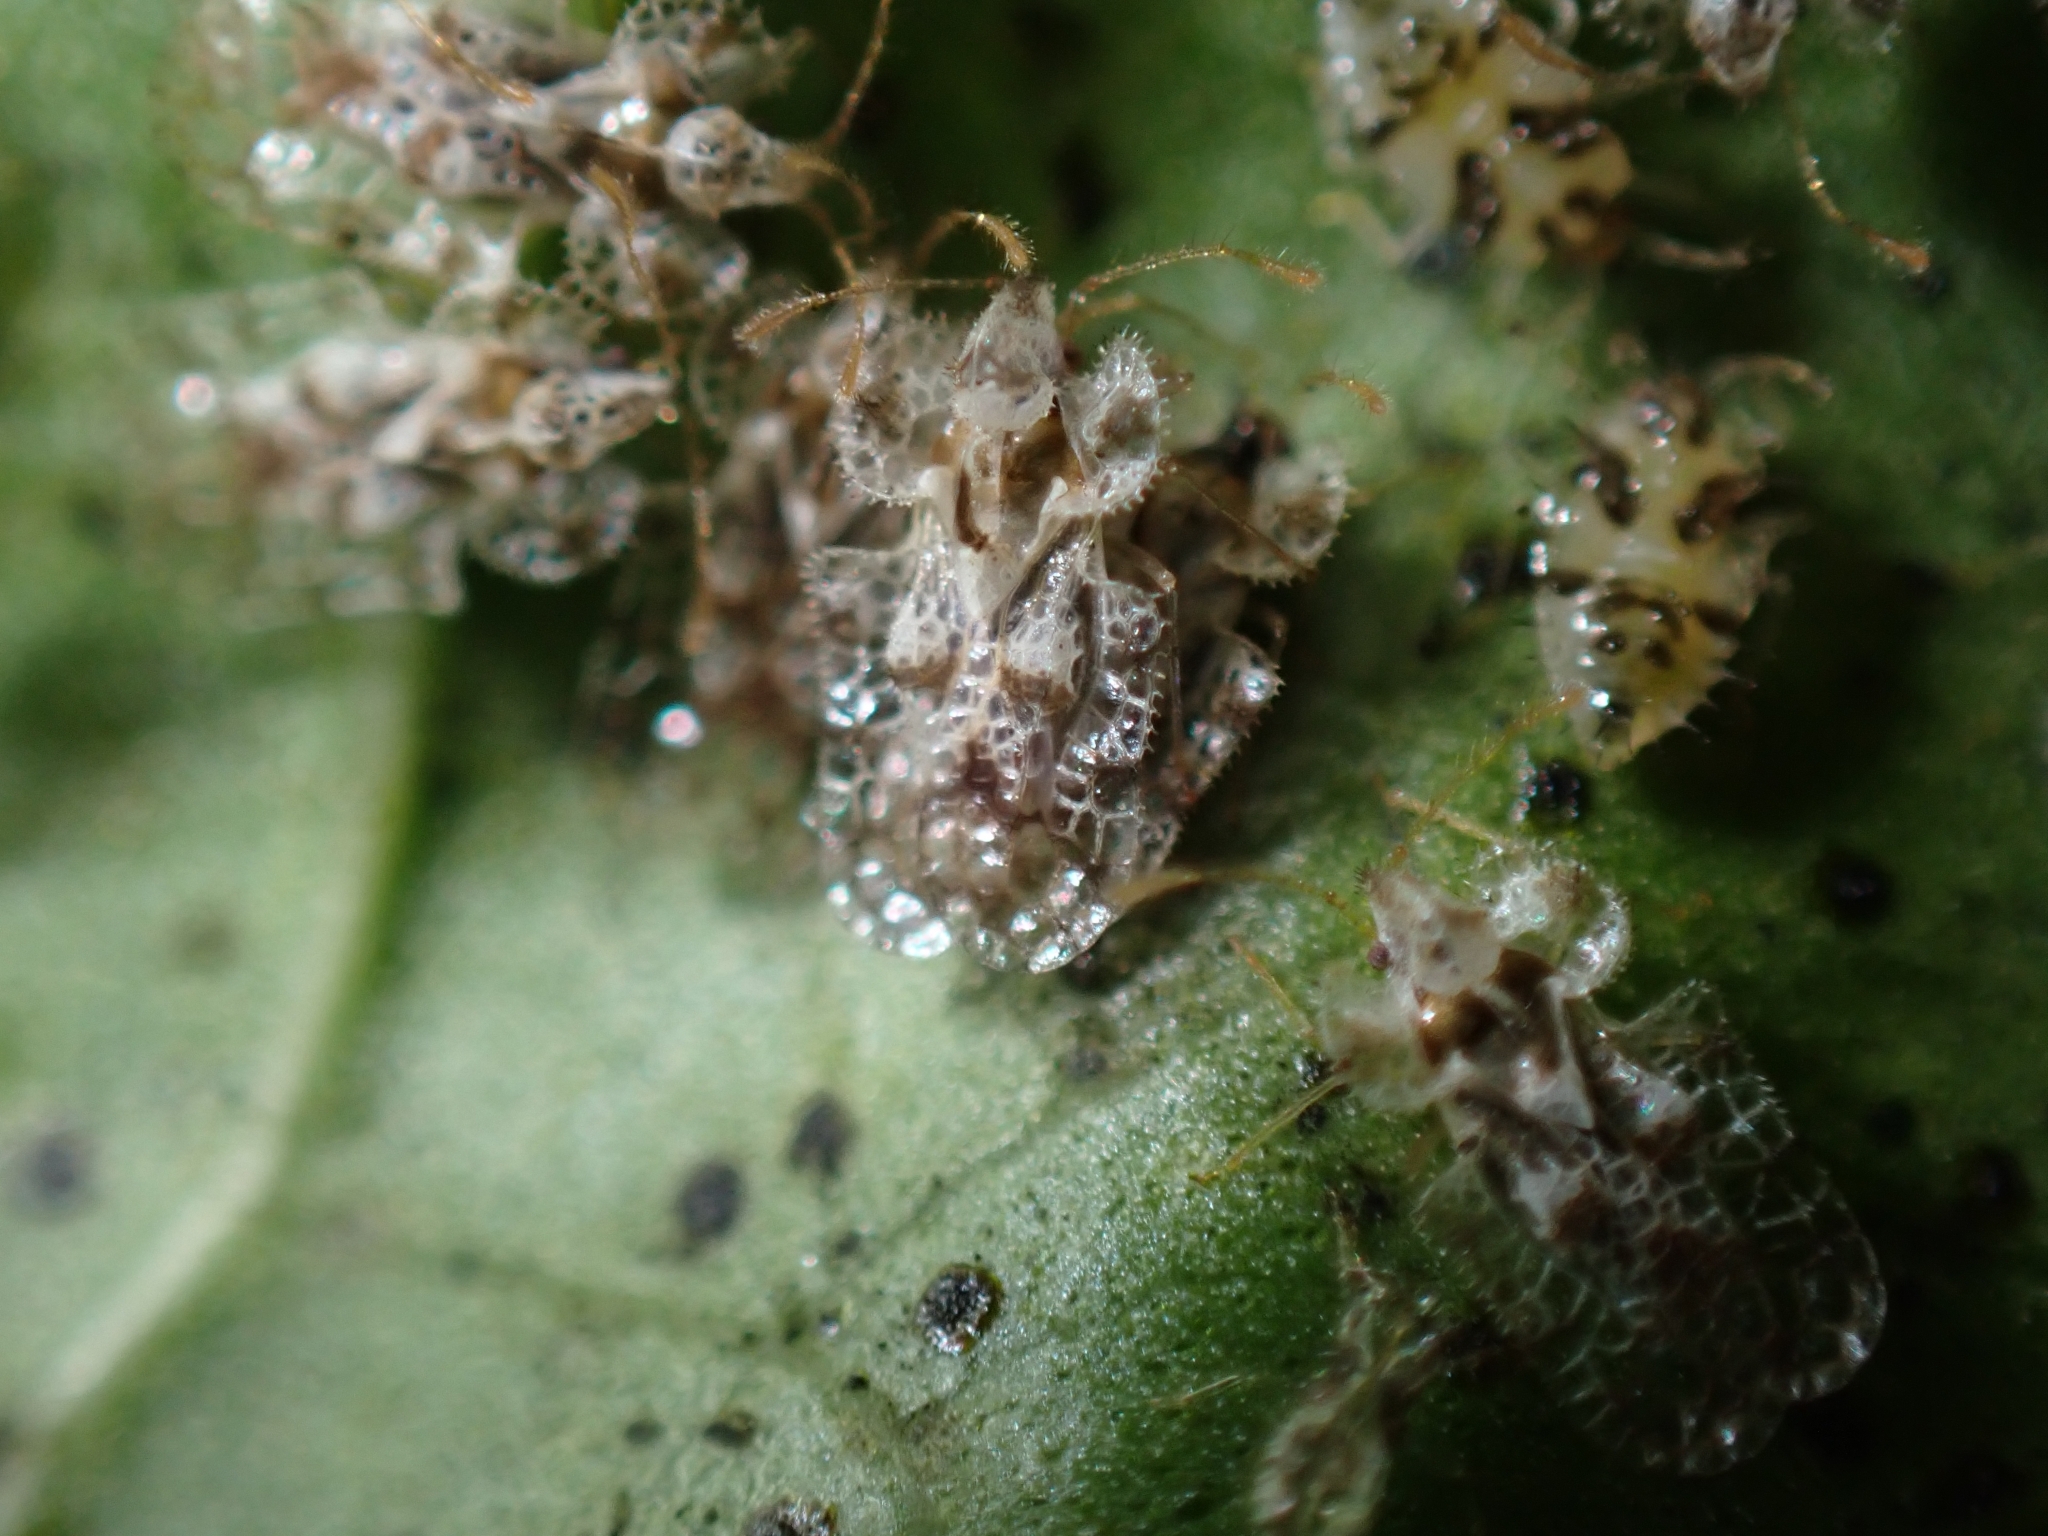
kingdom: Animalia
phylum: Arthropoda
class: Insecta
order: Hemiptera
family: Tingidae
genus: Corythucha
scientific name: Corythucha gossypii
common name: Cotton lace bug
